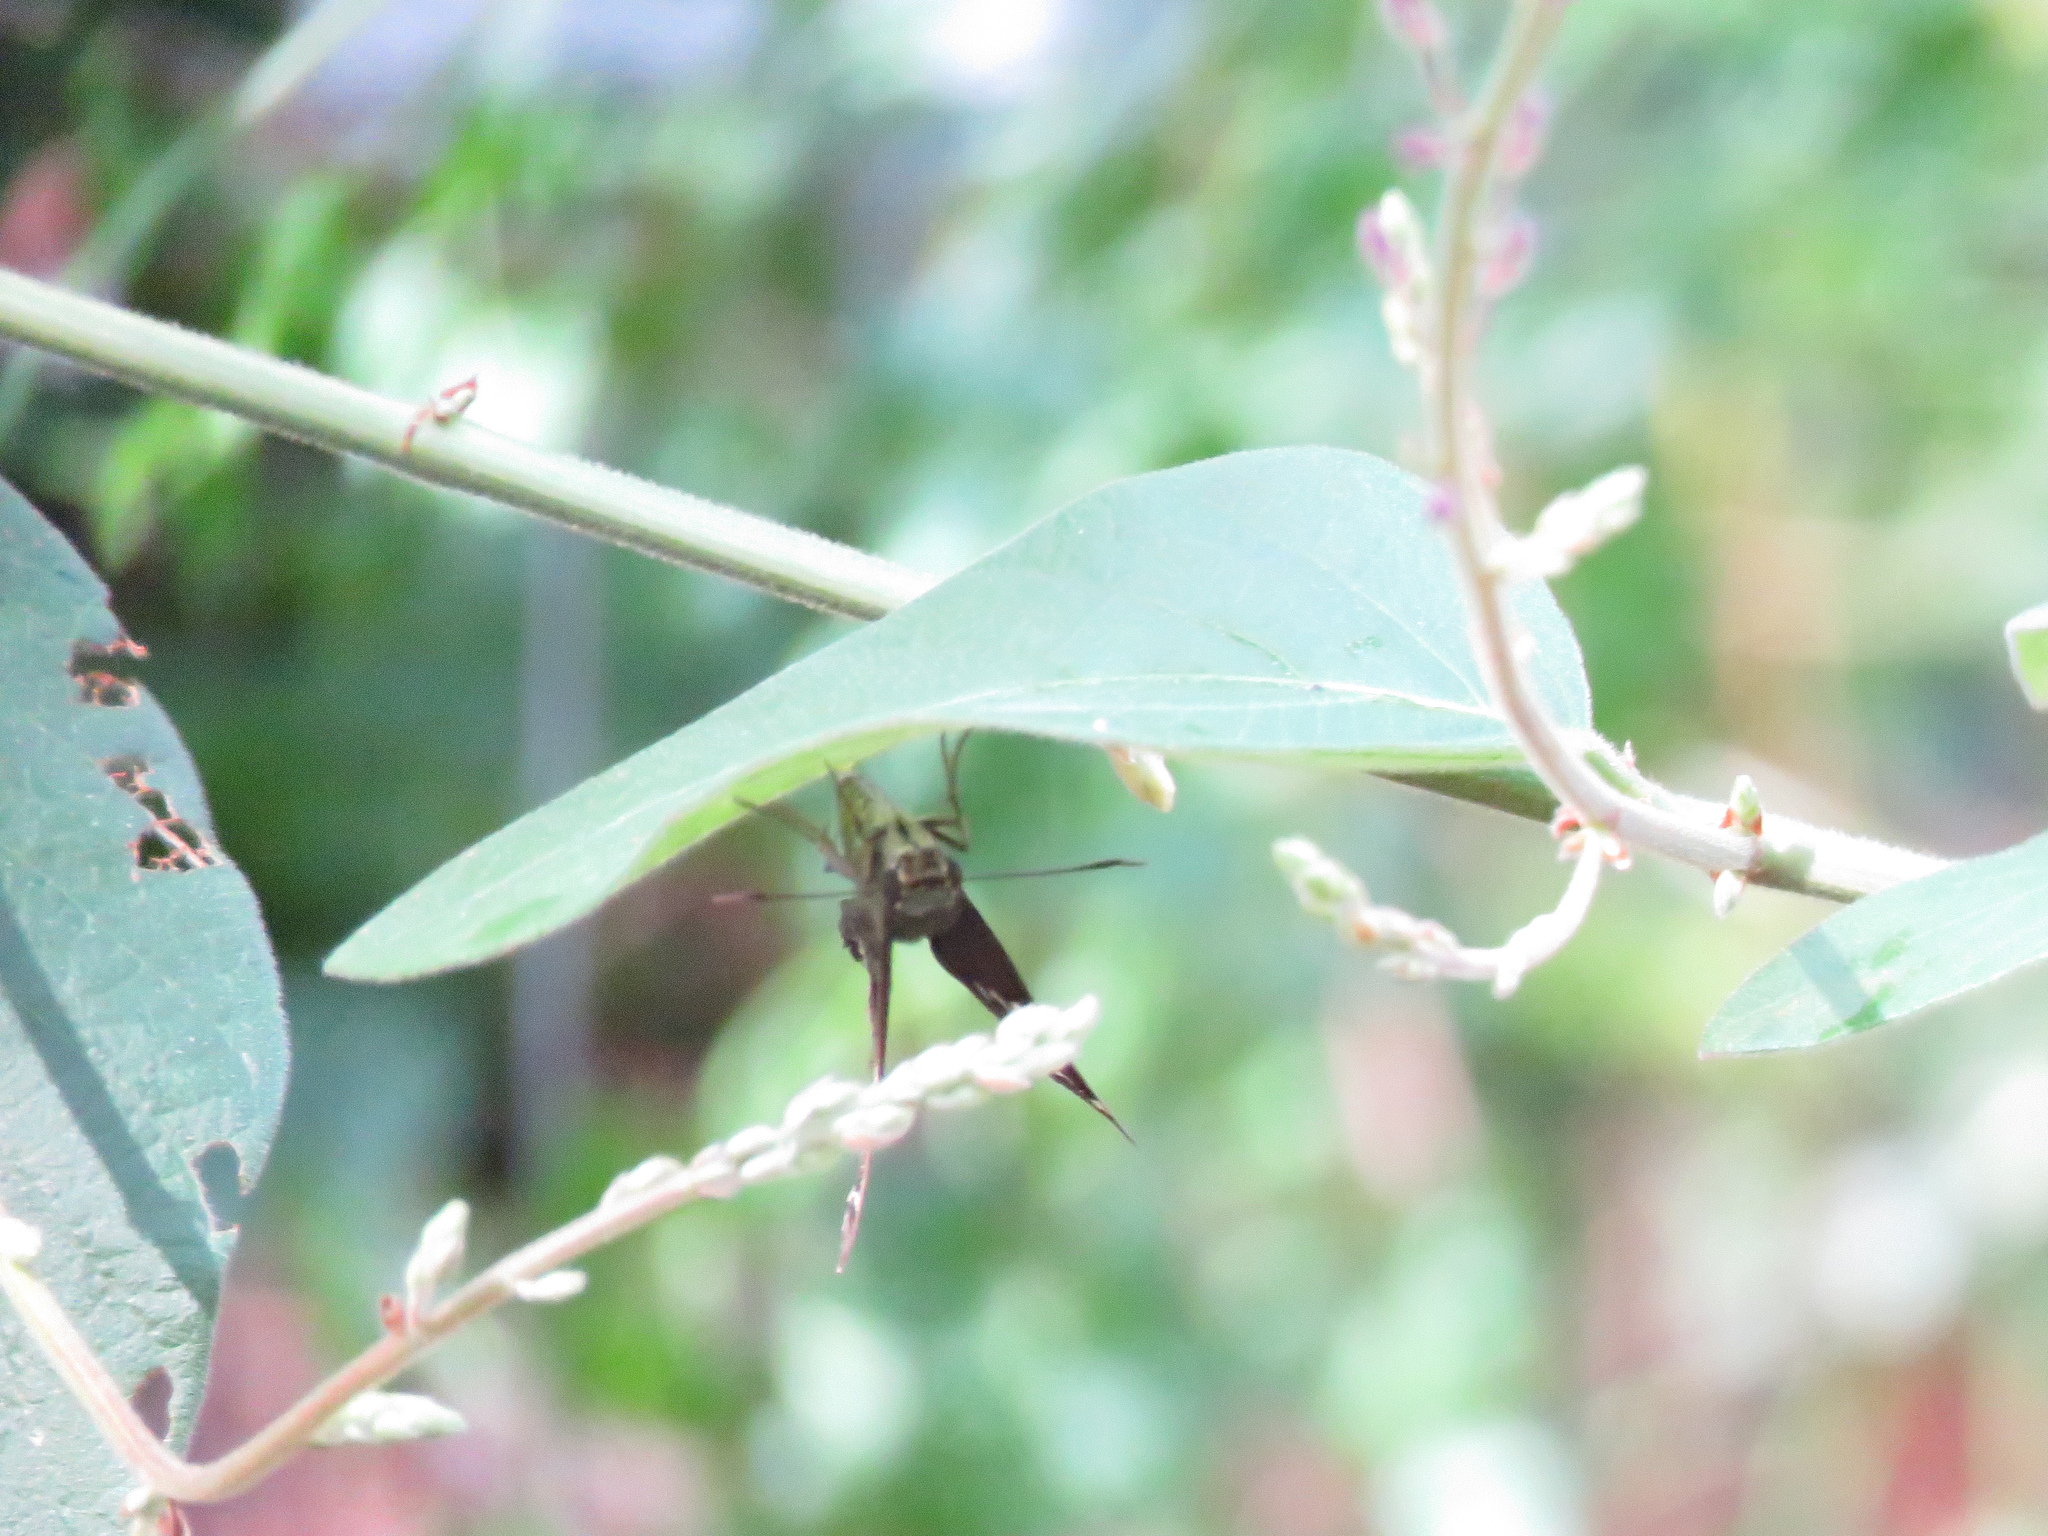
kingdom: Animalia
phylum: Arthropoda
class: Insecta
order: Lepidoptera
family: Hesperiidae
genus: Urbanus
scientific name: Urbanus proteus
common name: Long-tailed skipper
